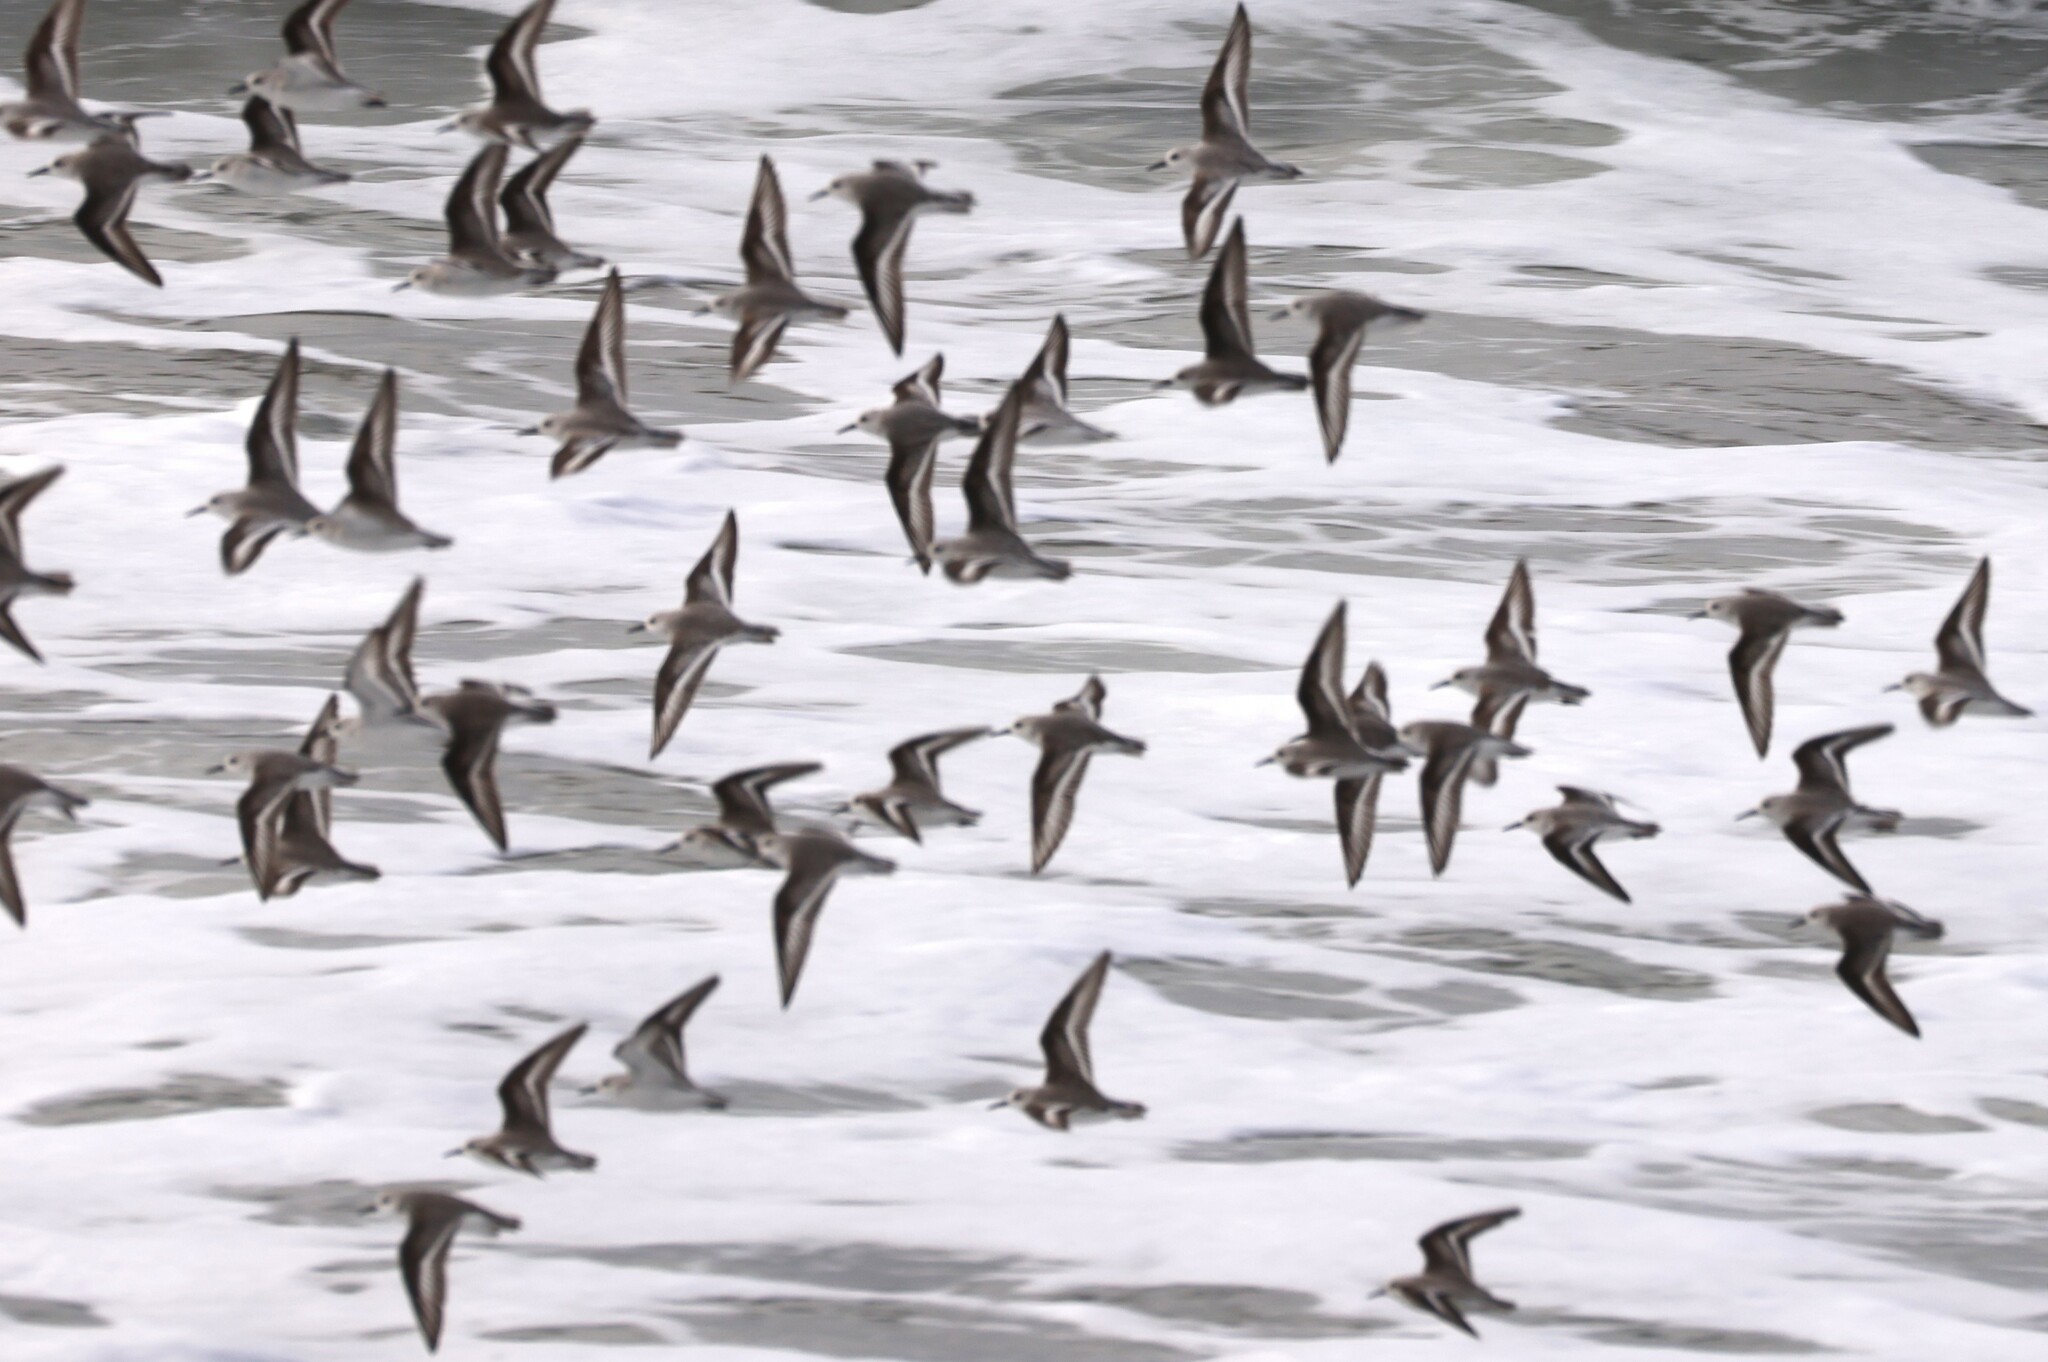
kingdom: Animalia
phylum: Chordata
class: Aves
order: Charadriiformes
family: Scolopacidae
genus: Calidris
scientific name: Calidris alba
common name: Sanderling
